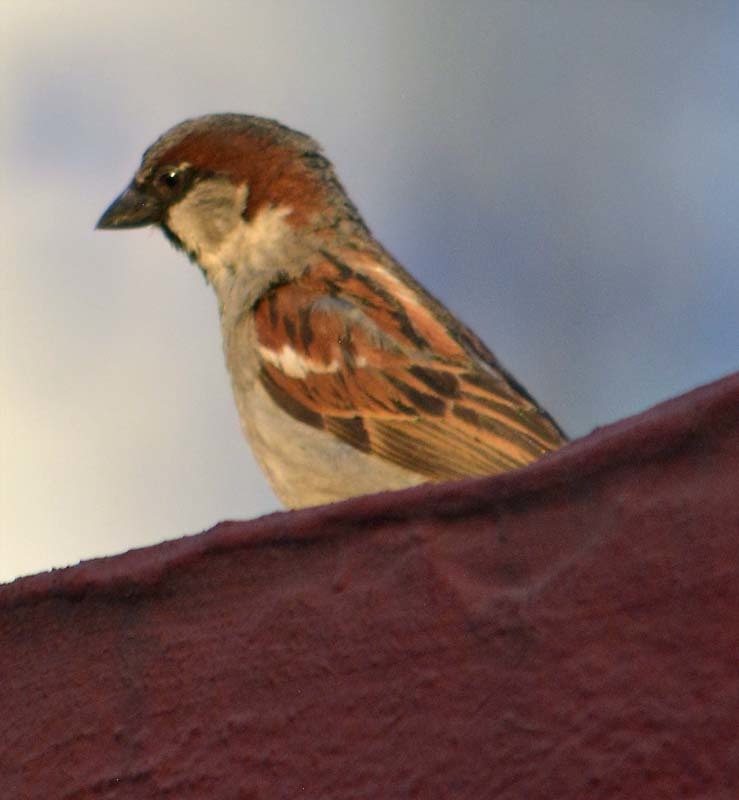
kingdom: Animalia
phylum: Chordata
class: Aves
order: Passeriformes
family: Passeridae
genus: Passer
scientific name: Passer domesticus
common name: House sparrow
